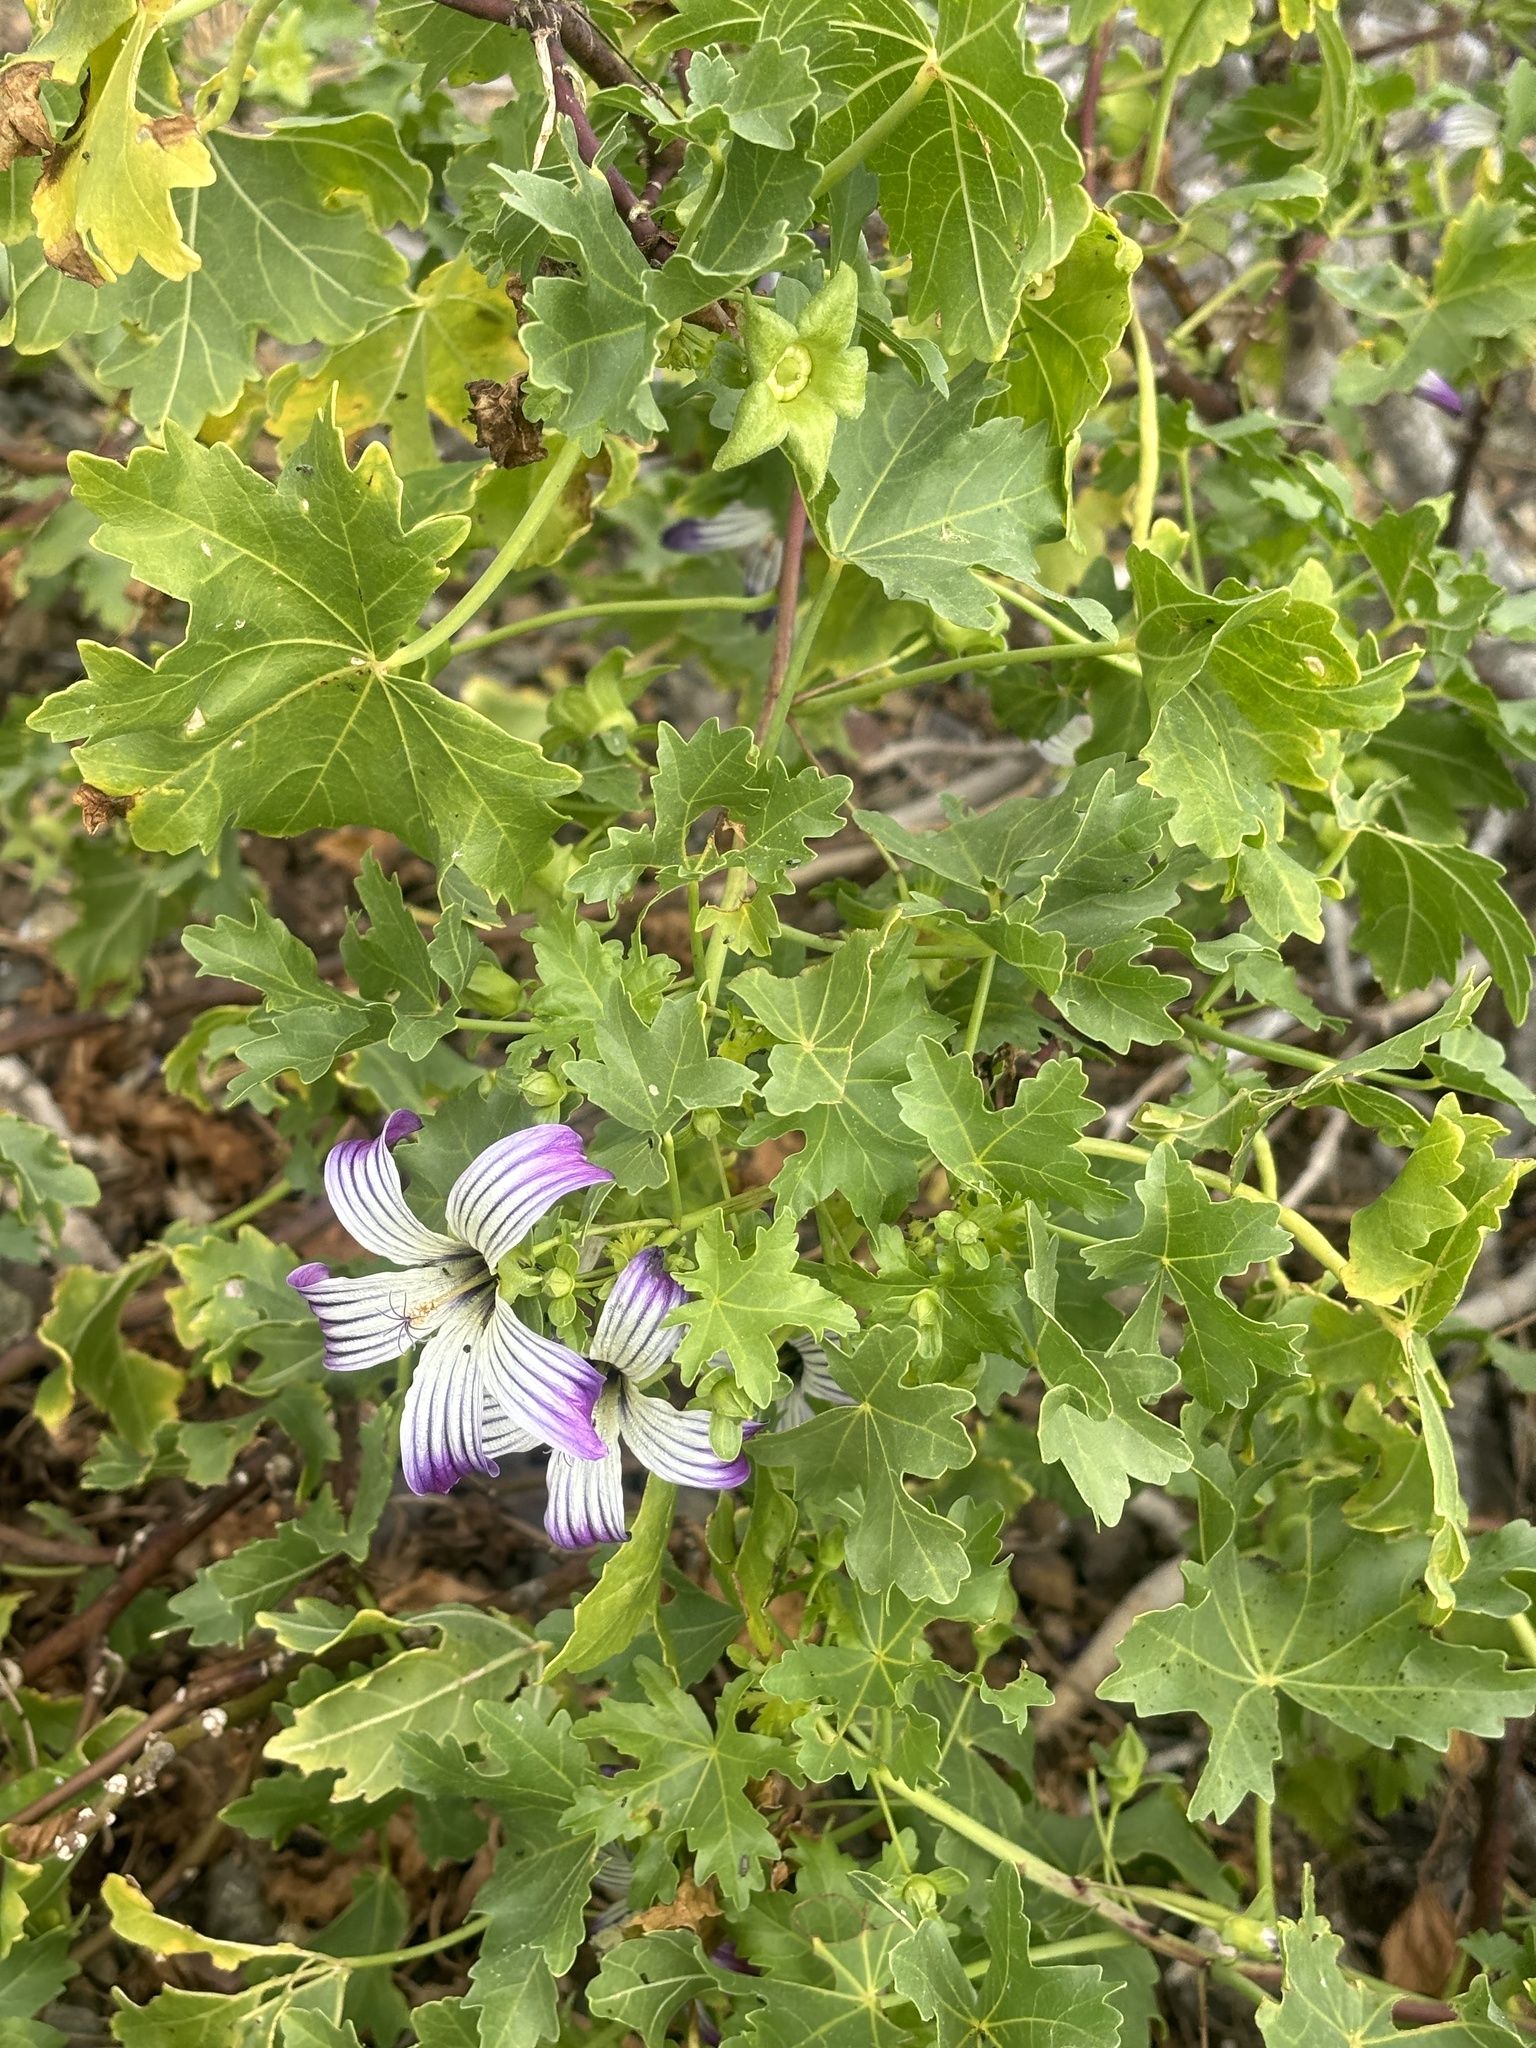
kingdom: Plantae
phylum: Tracheophyta
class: Magnoliopsida
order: Malvales
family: Malvaceae
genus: Malva
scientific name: Malva pacifica
